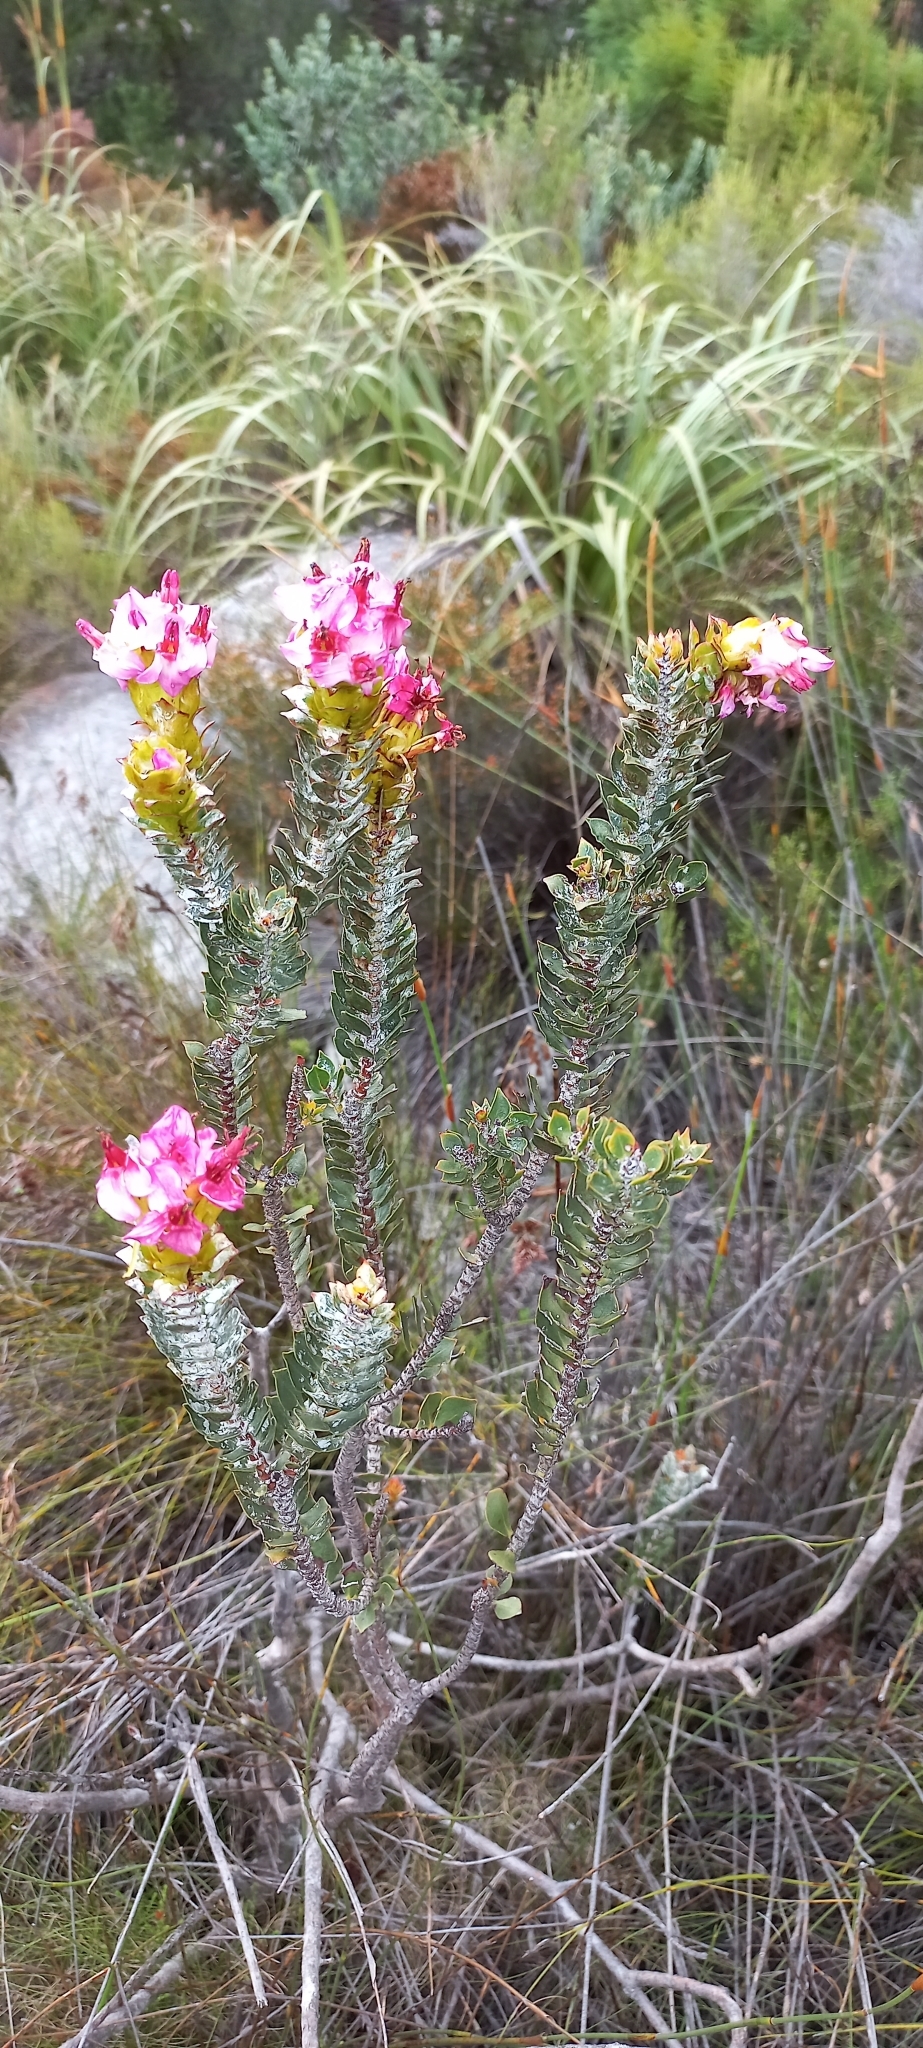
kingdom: Plantae
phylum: Tracheophyta
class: Magnoliopsida
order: Myrtales
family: Penaeaceae
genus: Saltera
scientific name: Saltera sarcocolla
